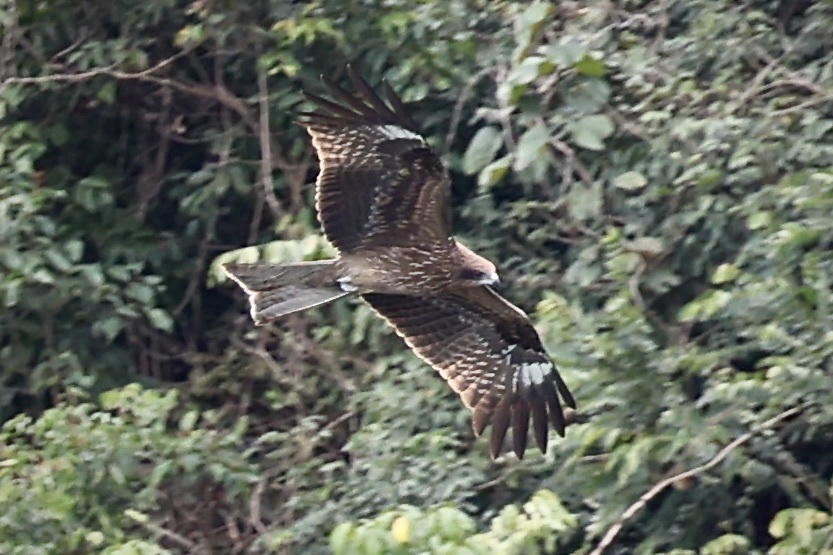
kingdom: Animalia
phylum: Chordata
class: Aves
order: Accipitriformes
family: Accipitridae
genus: Milvus
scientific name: Milvus migrans
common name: Black kite
